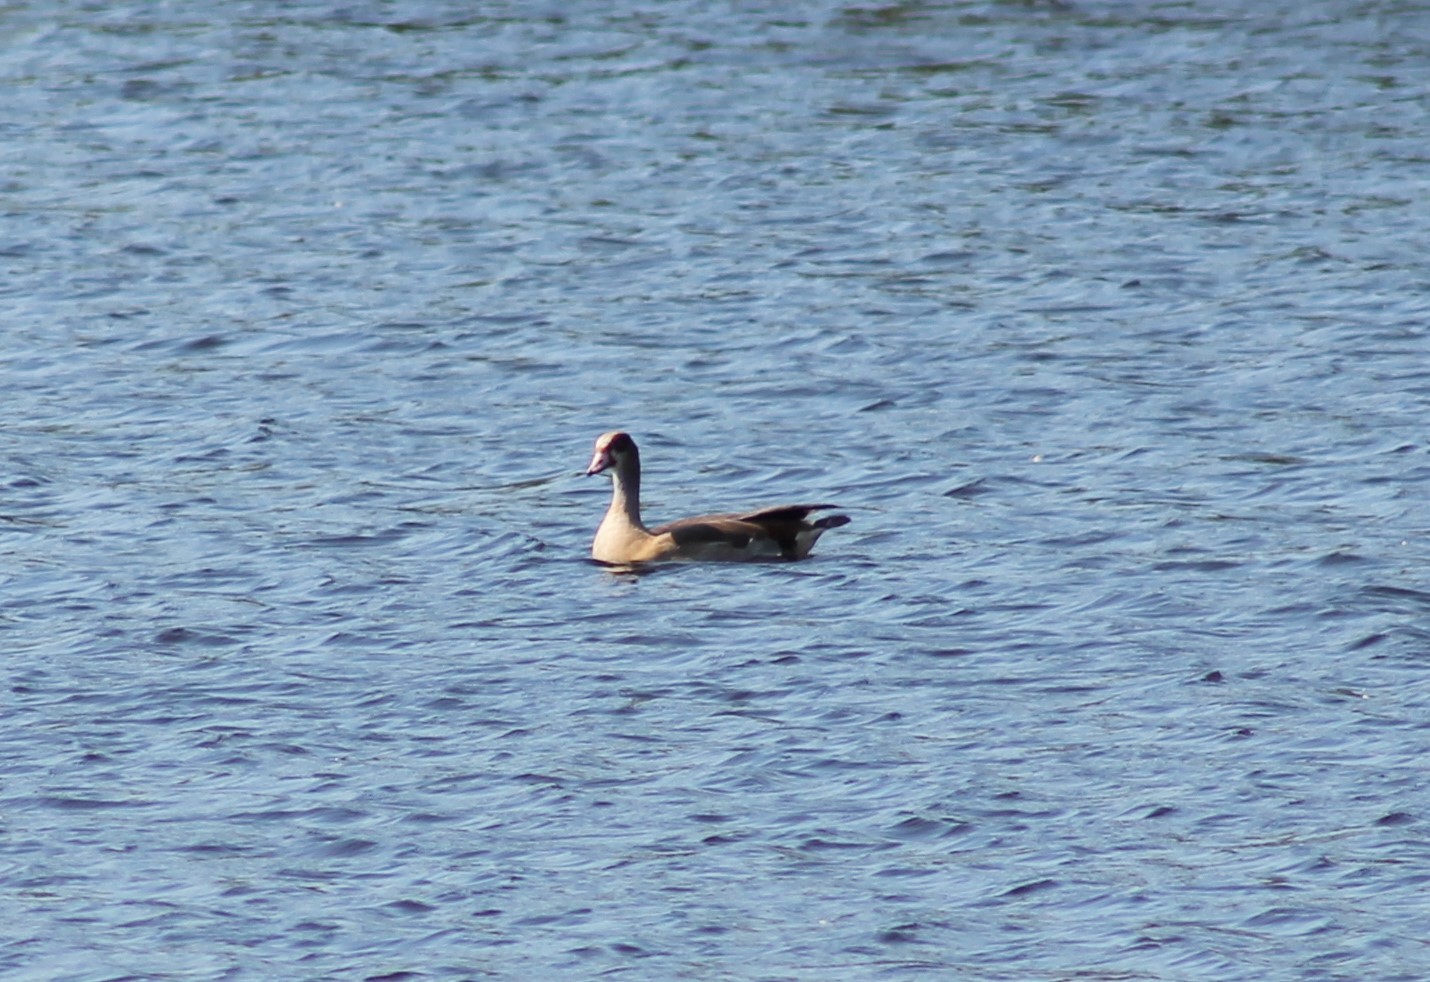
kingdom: Animalia
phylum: Chordata
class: Aves
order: Anseriformes
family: Anatidae
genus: Alopochen
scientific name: Alopochen aegyptiaca
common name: Egyptian goose
